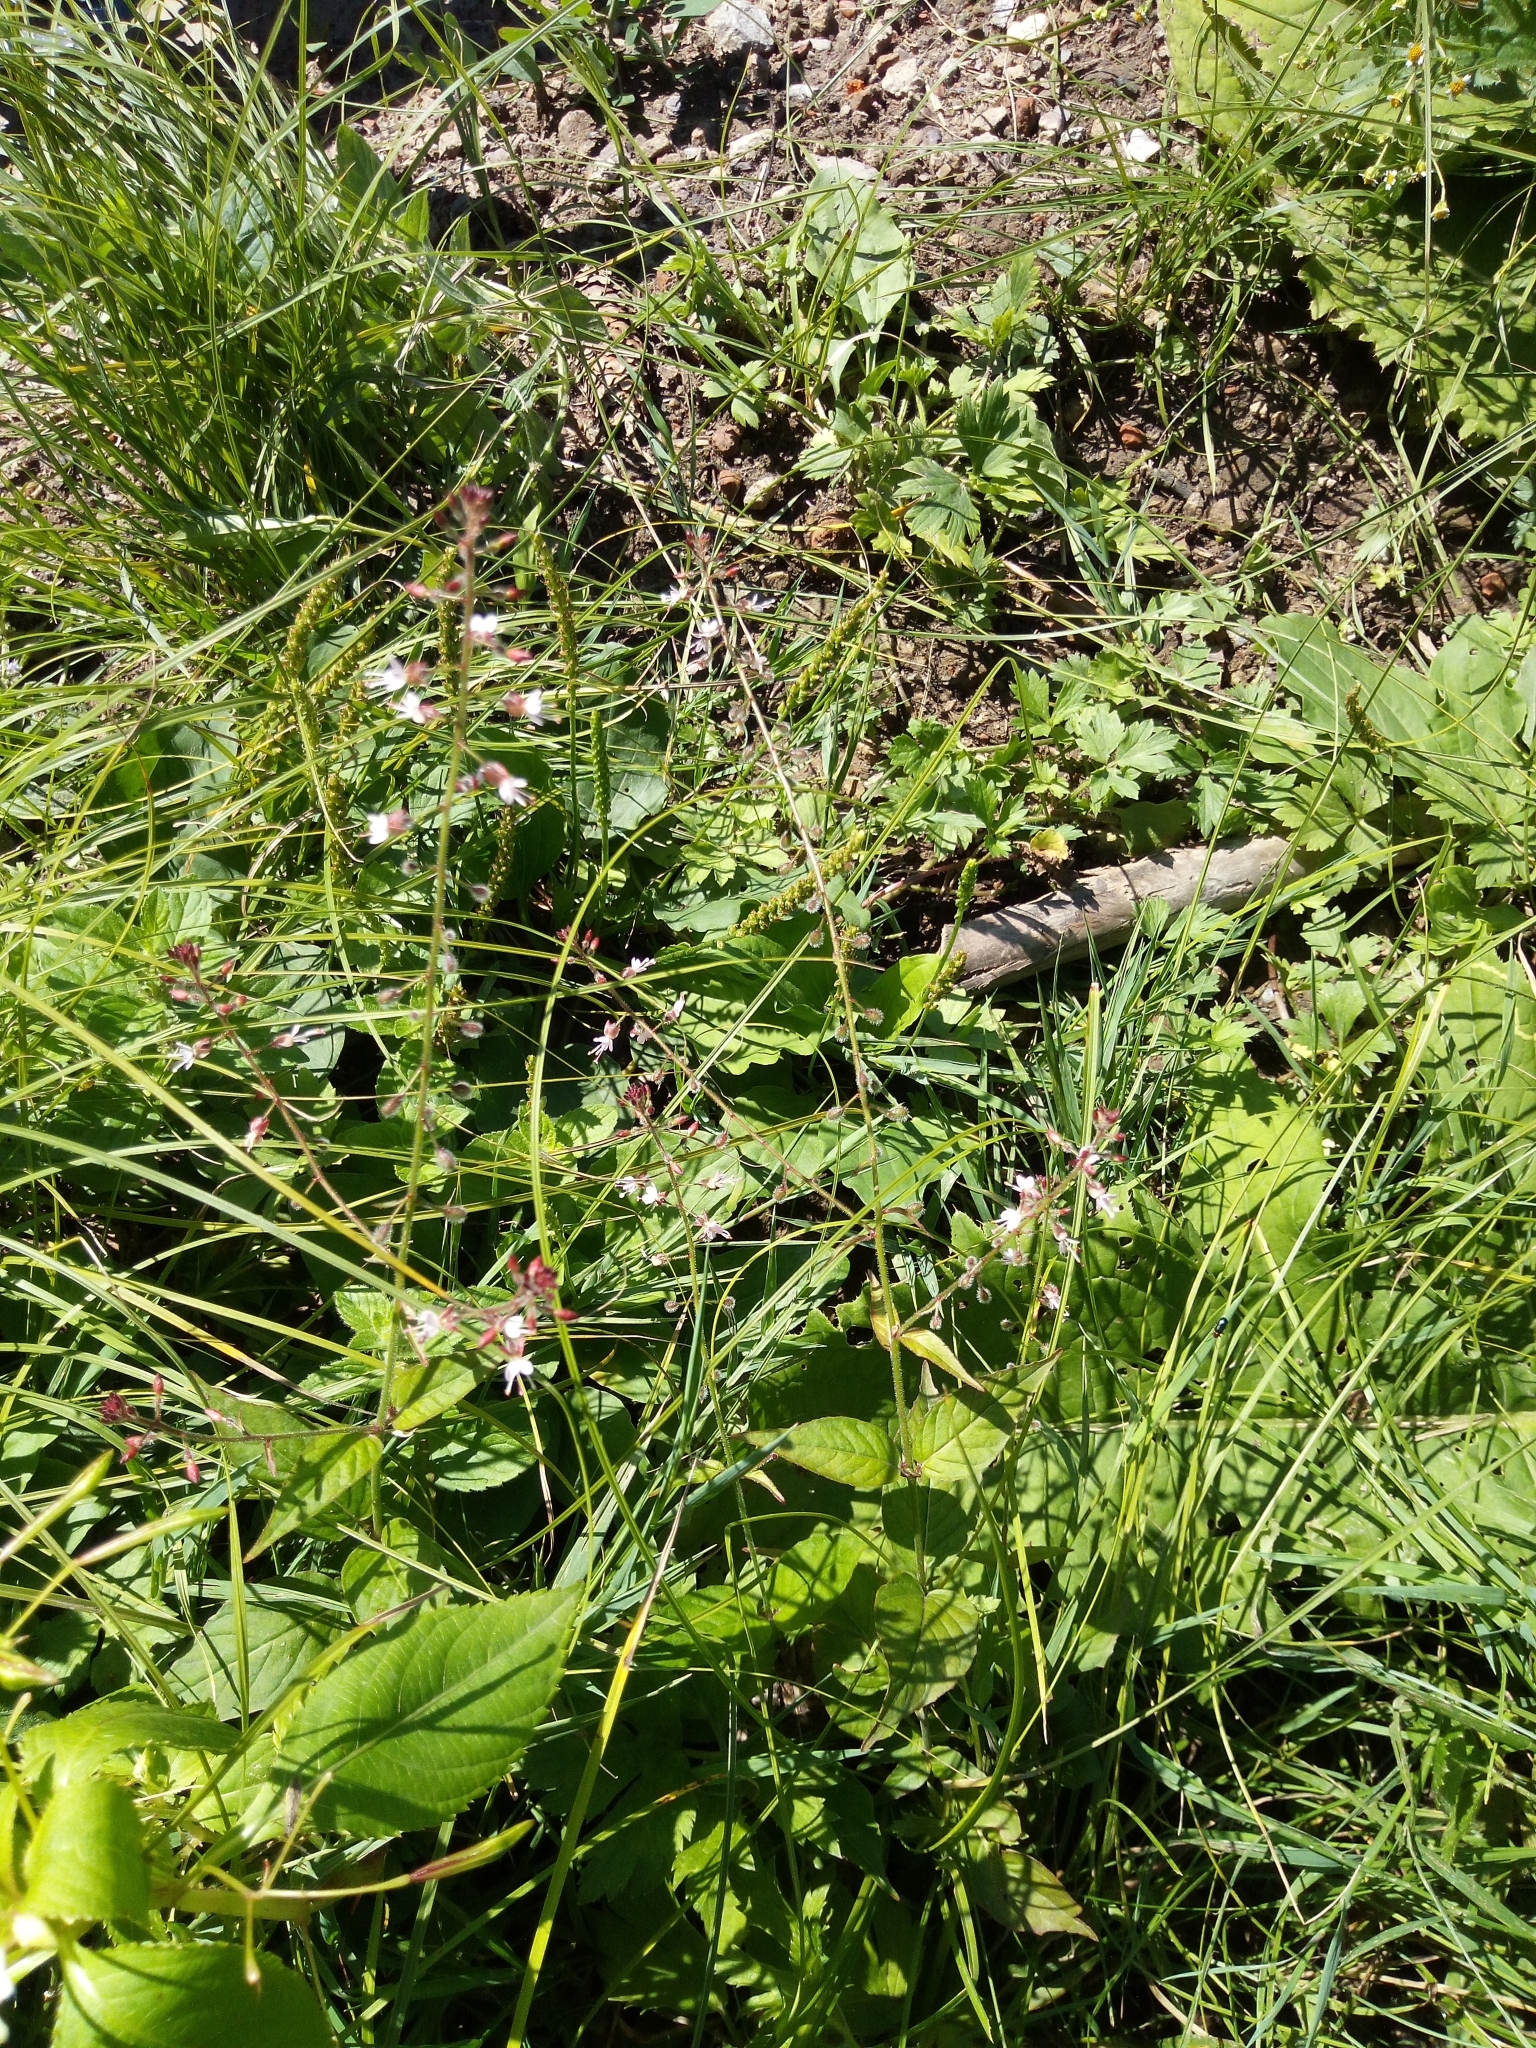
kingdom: Plantae
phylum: Tracheophyta
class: Magnoliopsida
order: Myrtales
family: Onagraceae
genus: Circaea
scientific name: Circaea lutetiana
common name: Enchanter's-nightshade
